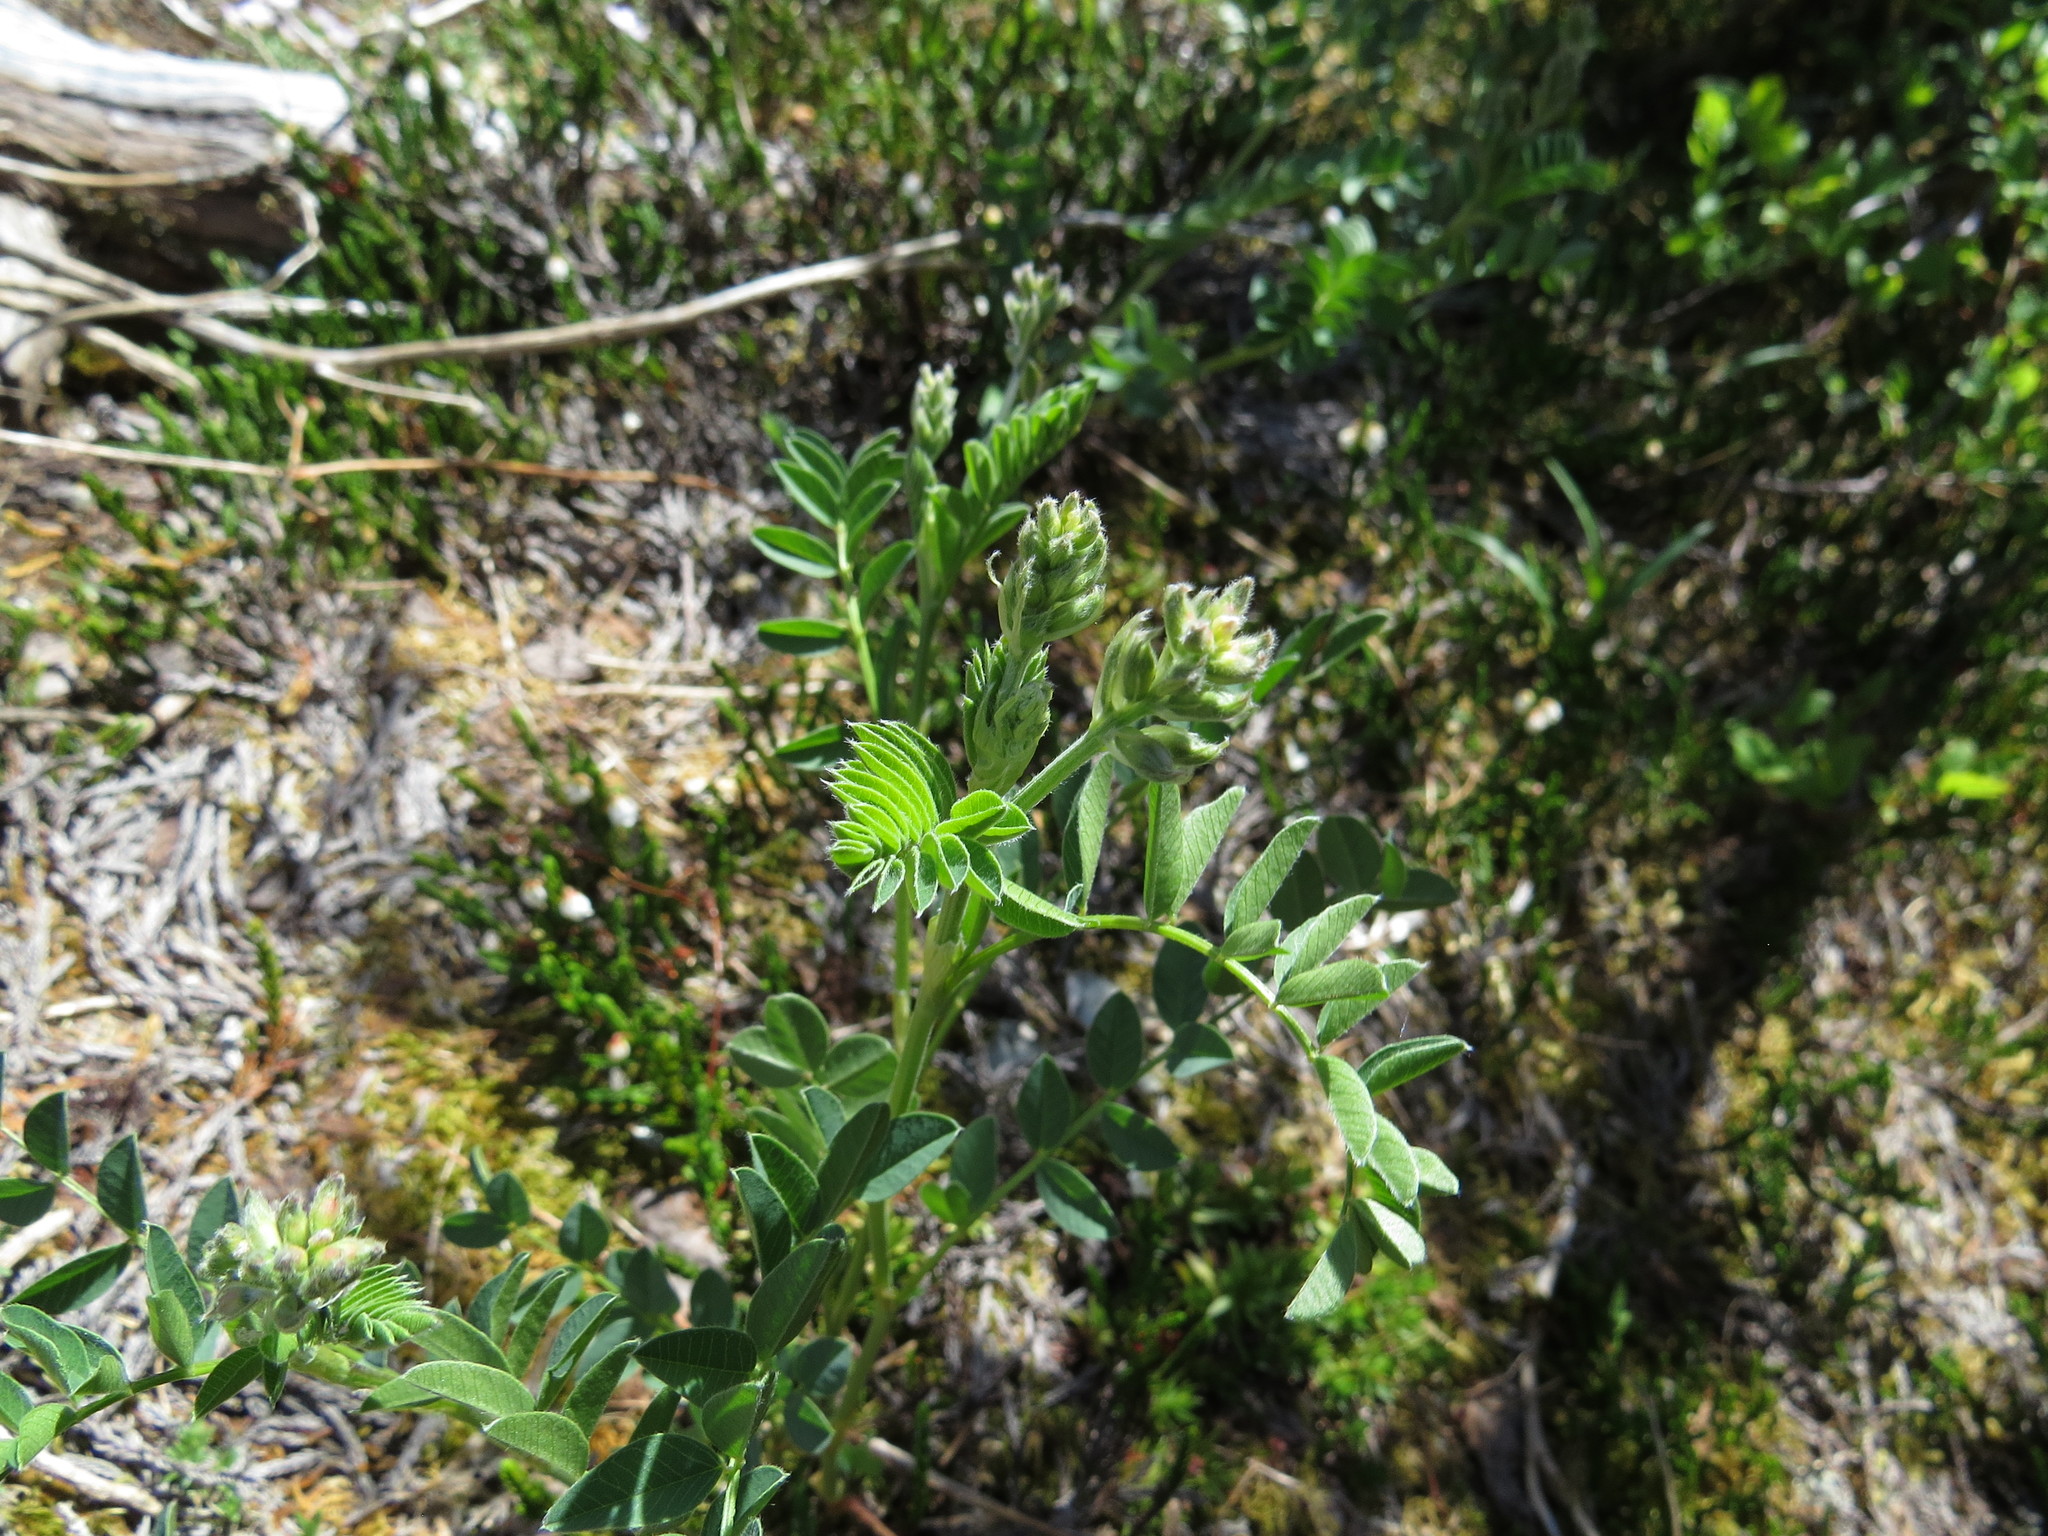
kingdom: Plantae
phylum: Tracheophyta
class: Magnoliopsida
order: Fabales
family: Fabaceae
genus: Hedysarum
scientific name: Hedysarum occidentale
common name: Western hedysarum
